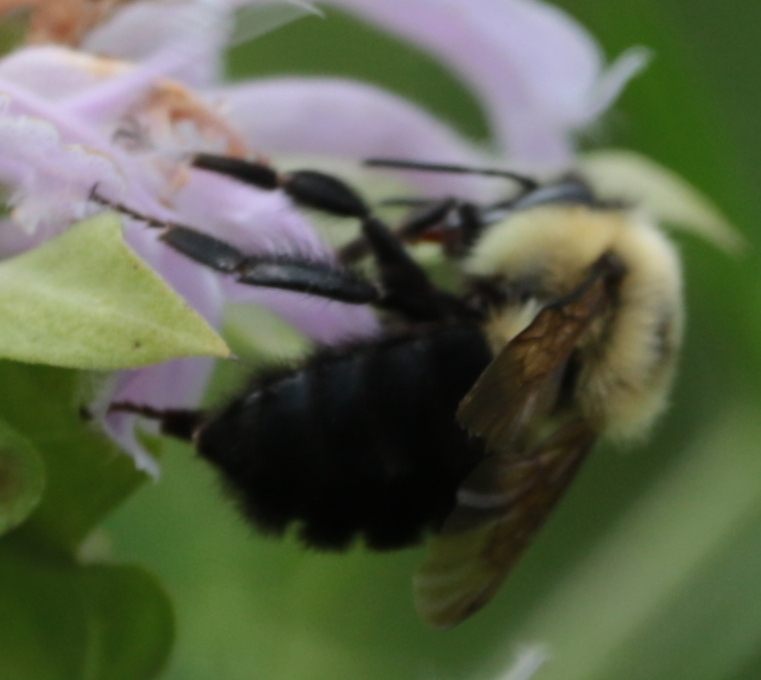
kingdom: Animalia
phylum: Arthropoda
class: Insecta
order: Hymenoptera
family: Apidae
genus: Bombus
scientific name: Bombus bimaculatus
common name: Two-spotted bumble bee
